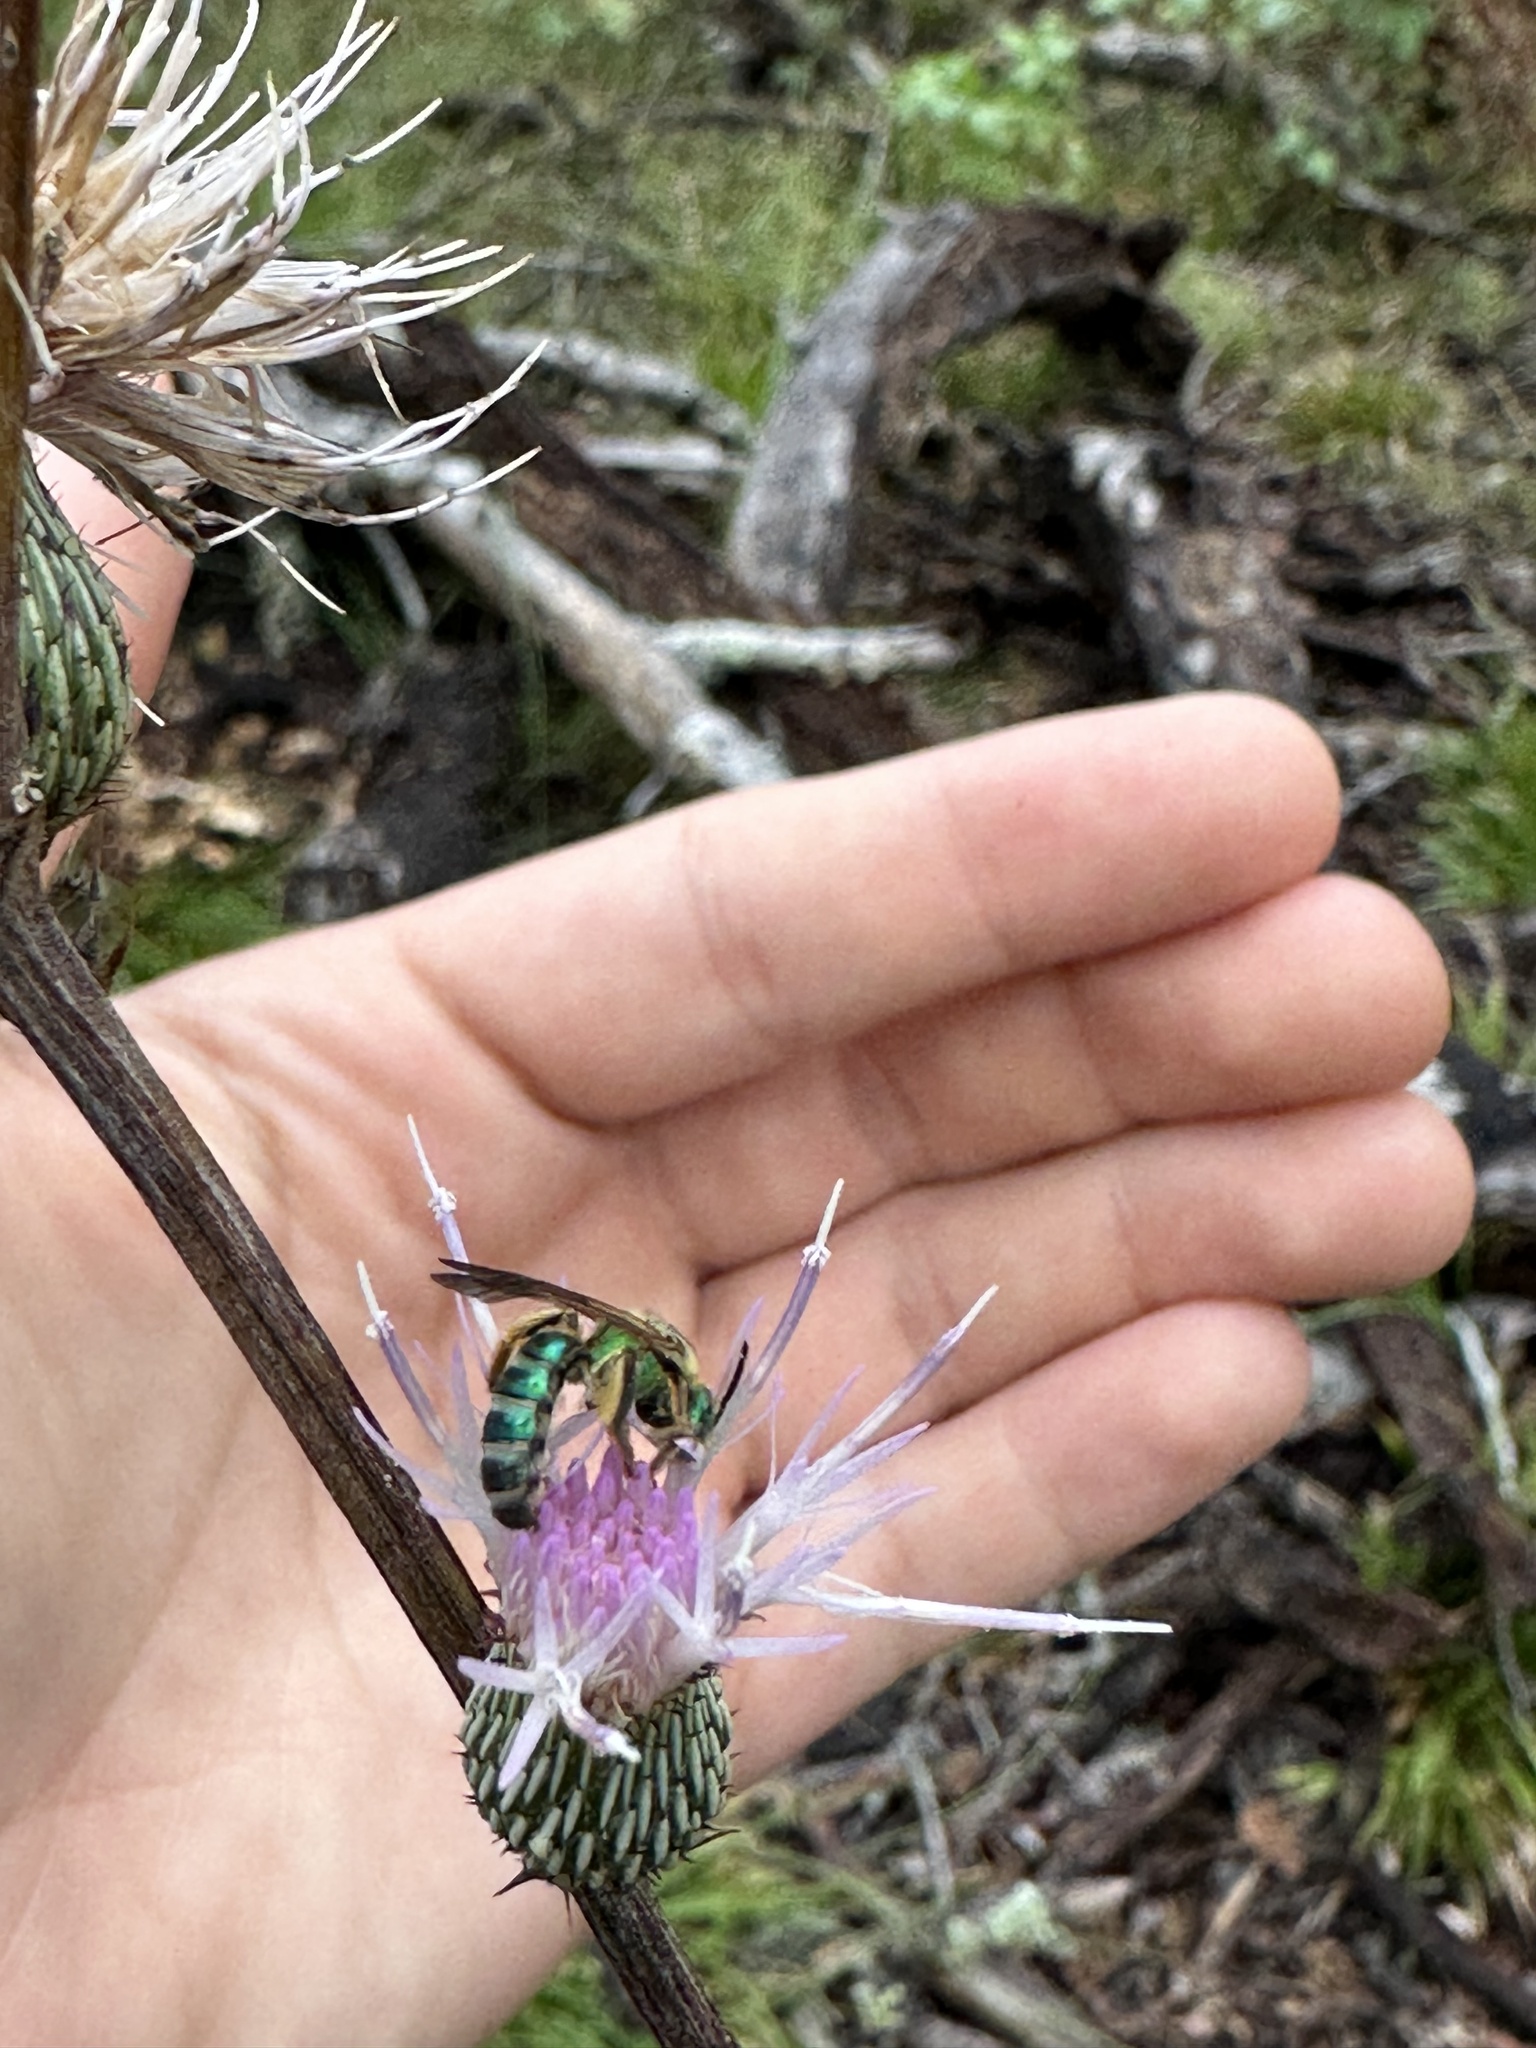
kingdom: Animalia
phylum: Arthropoda
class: Insecta
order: Hymenoptera
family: Halictidae
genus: Agapostemon
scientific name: Agapostemon splendens
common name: Brown-winged striped sweat bee
